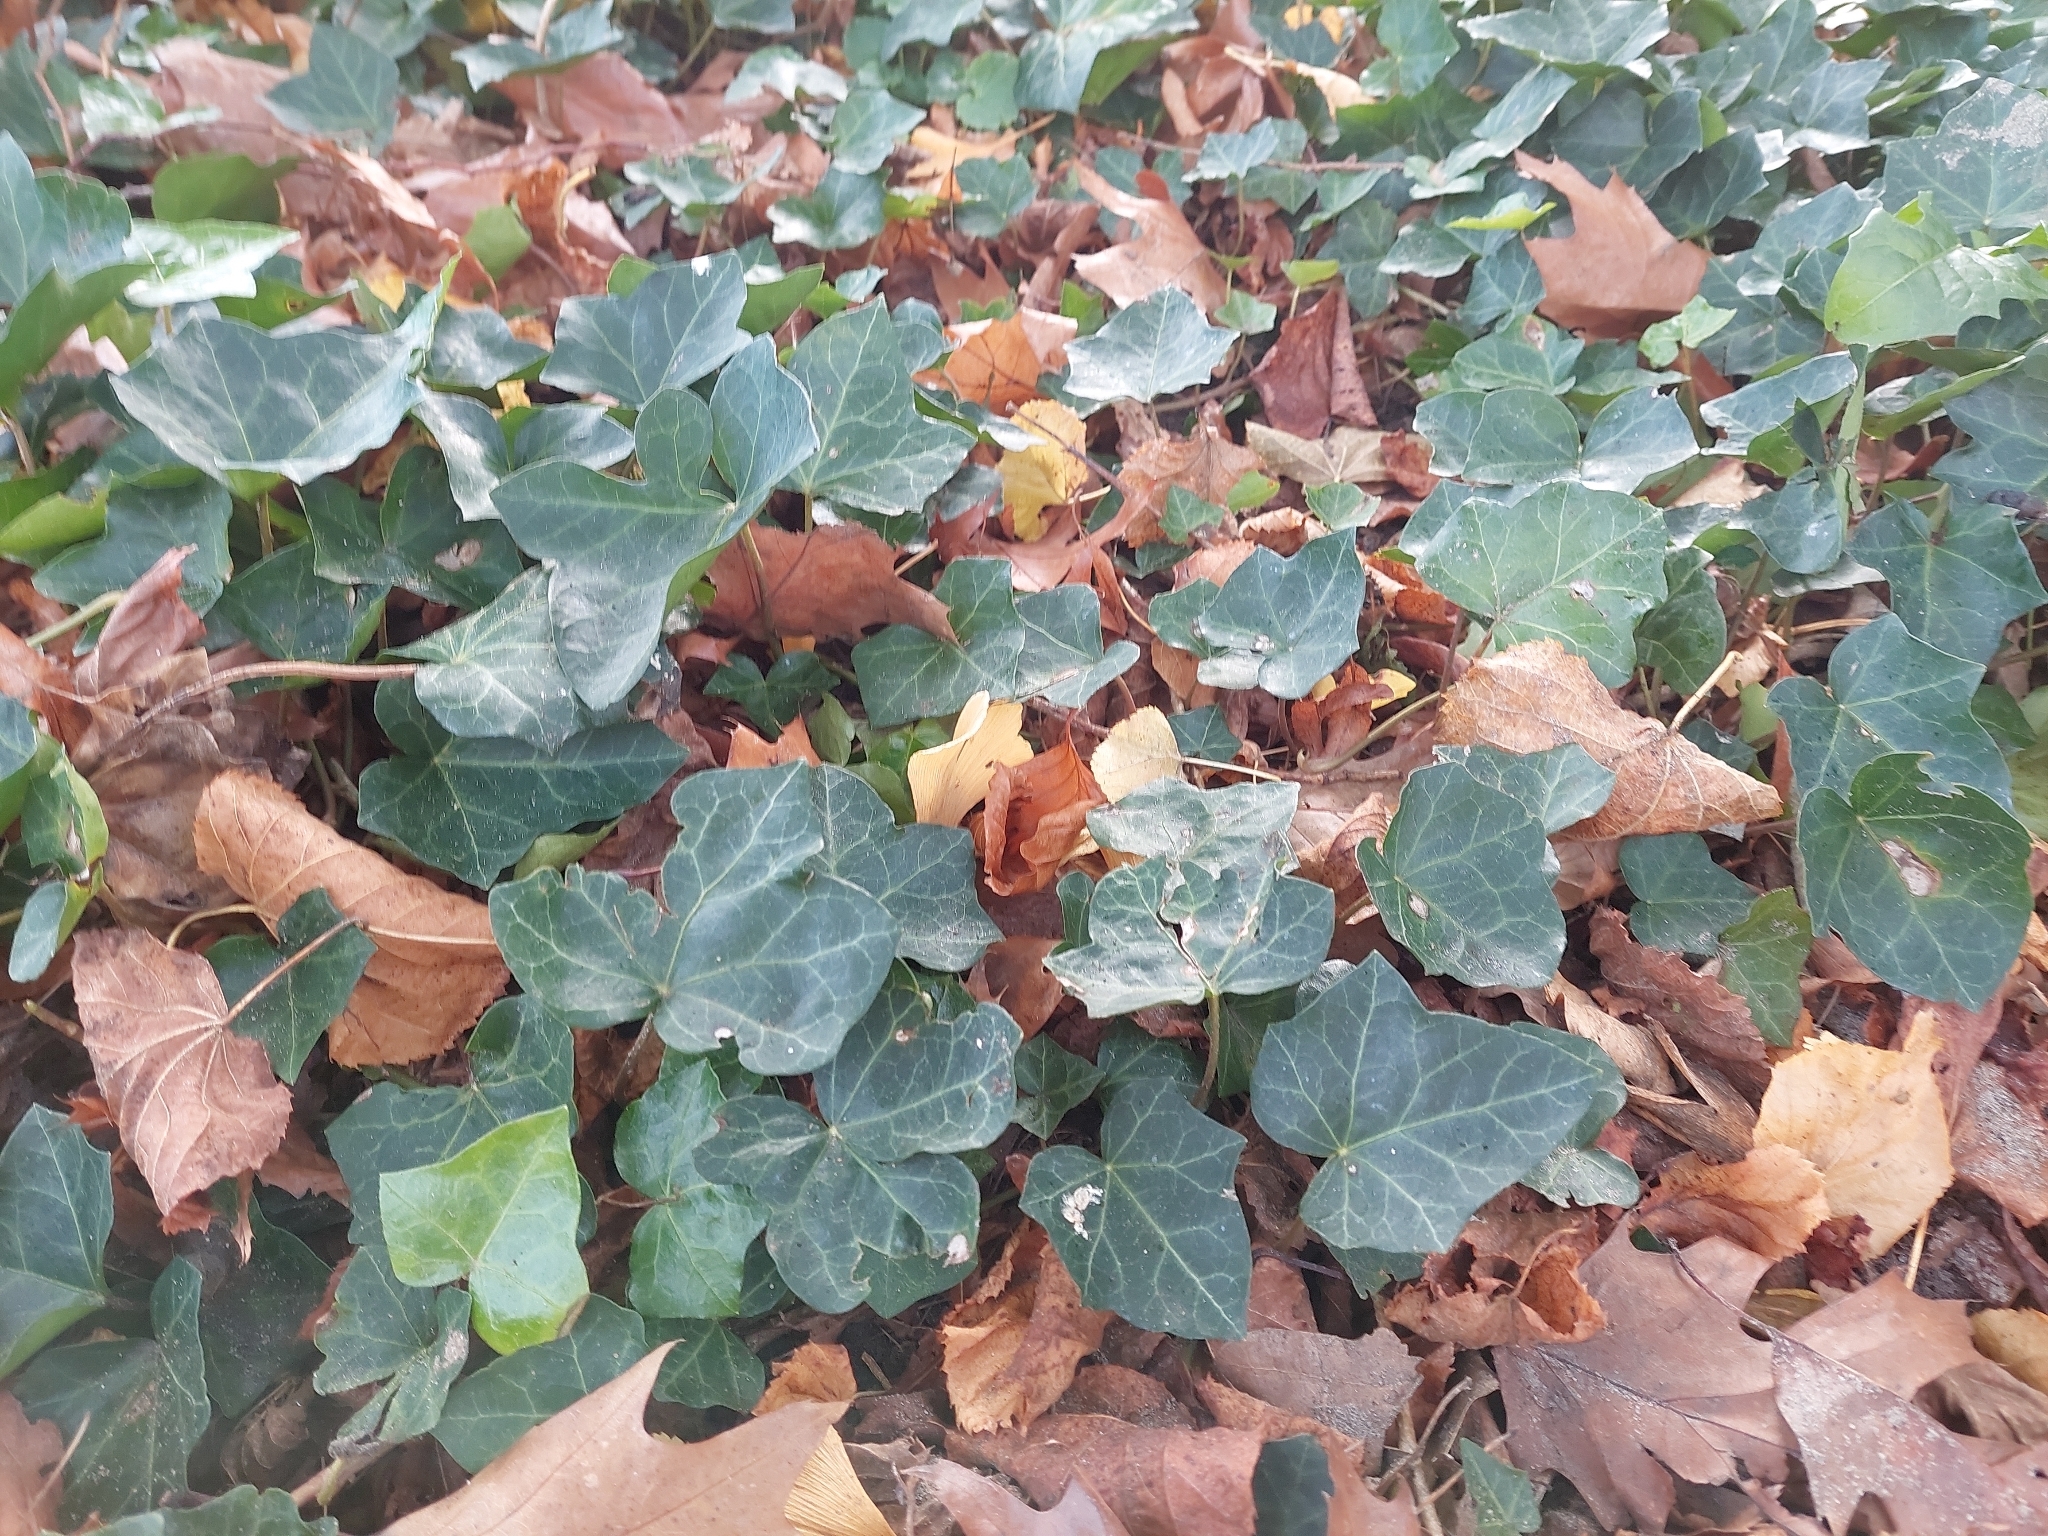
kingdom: Plantae
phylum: Tracheophyta
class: Magnoliopsida
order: Apiales
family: Araliaceae
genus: Hedera
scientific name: Hedera helix
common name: Ivy
